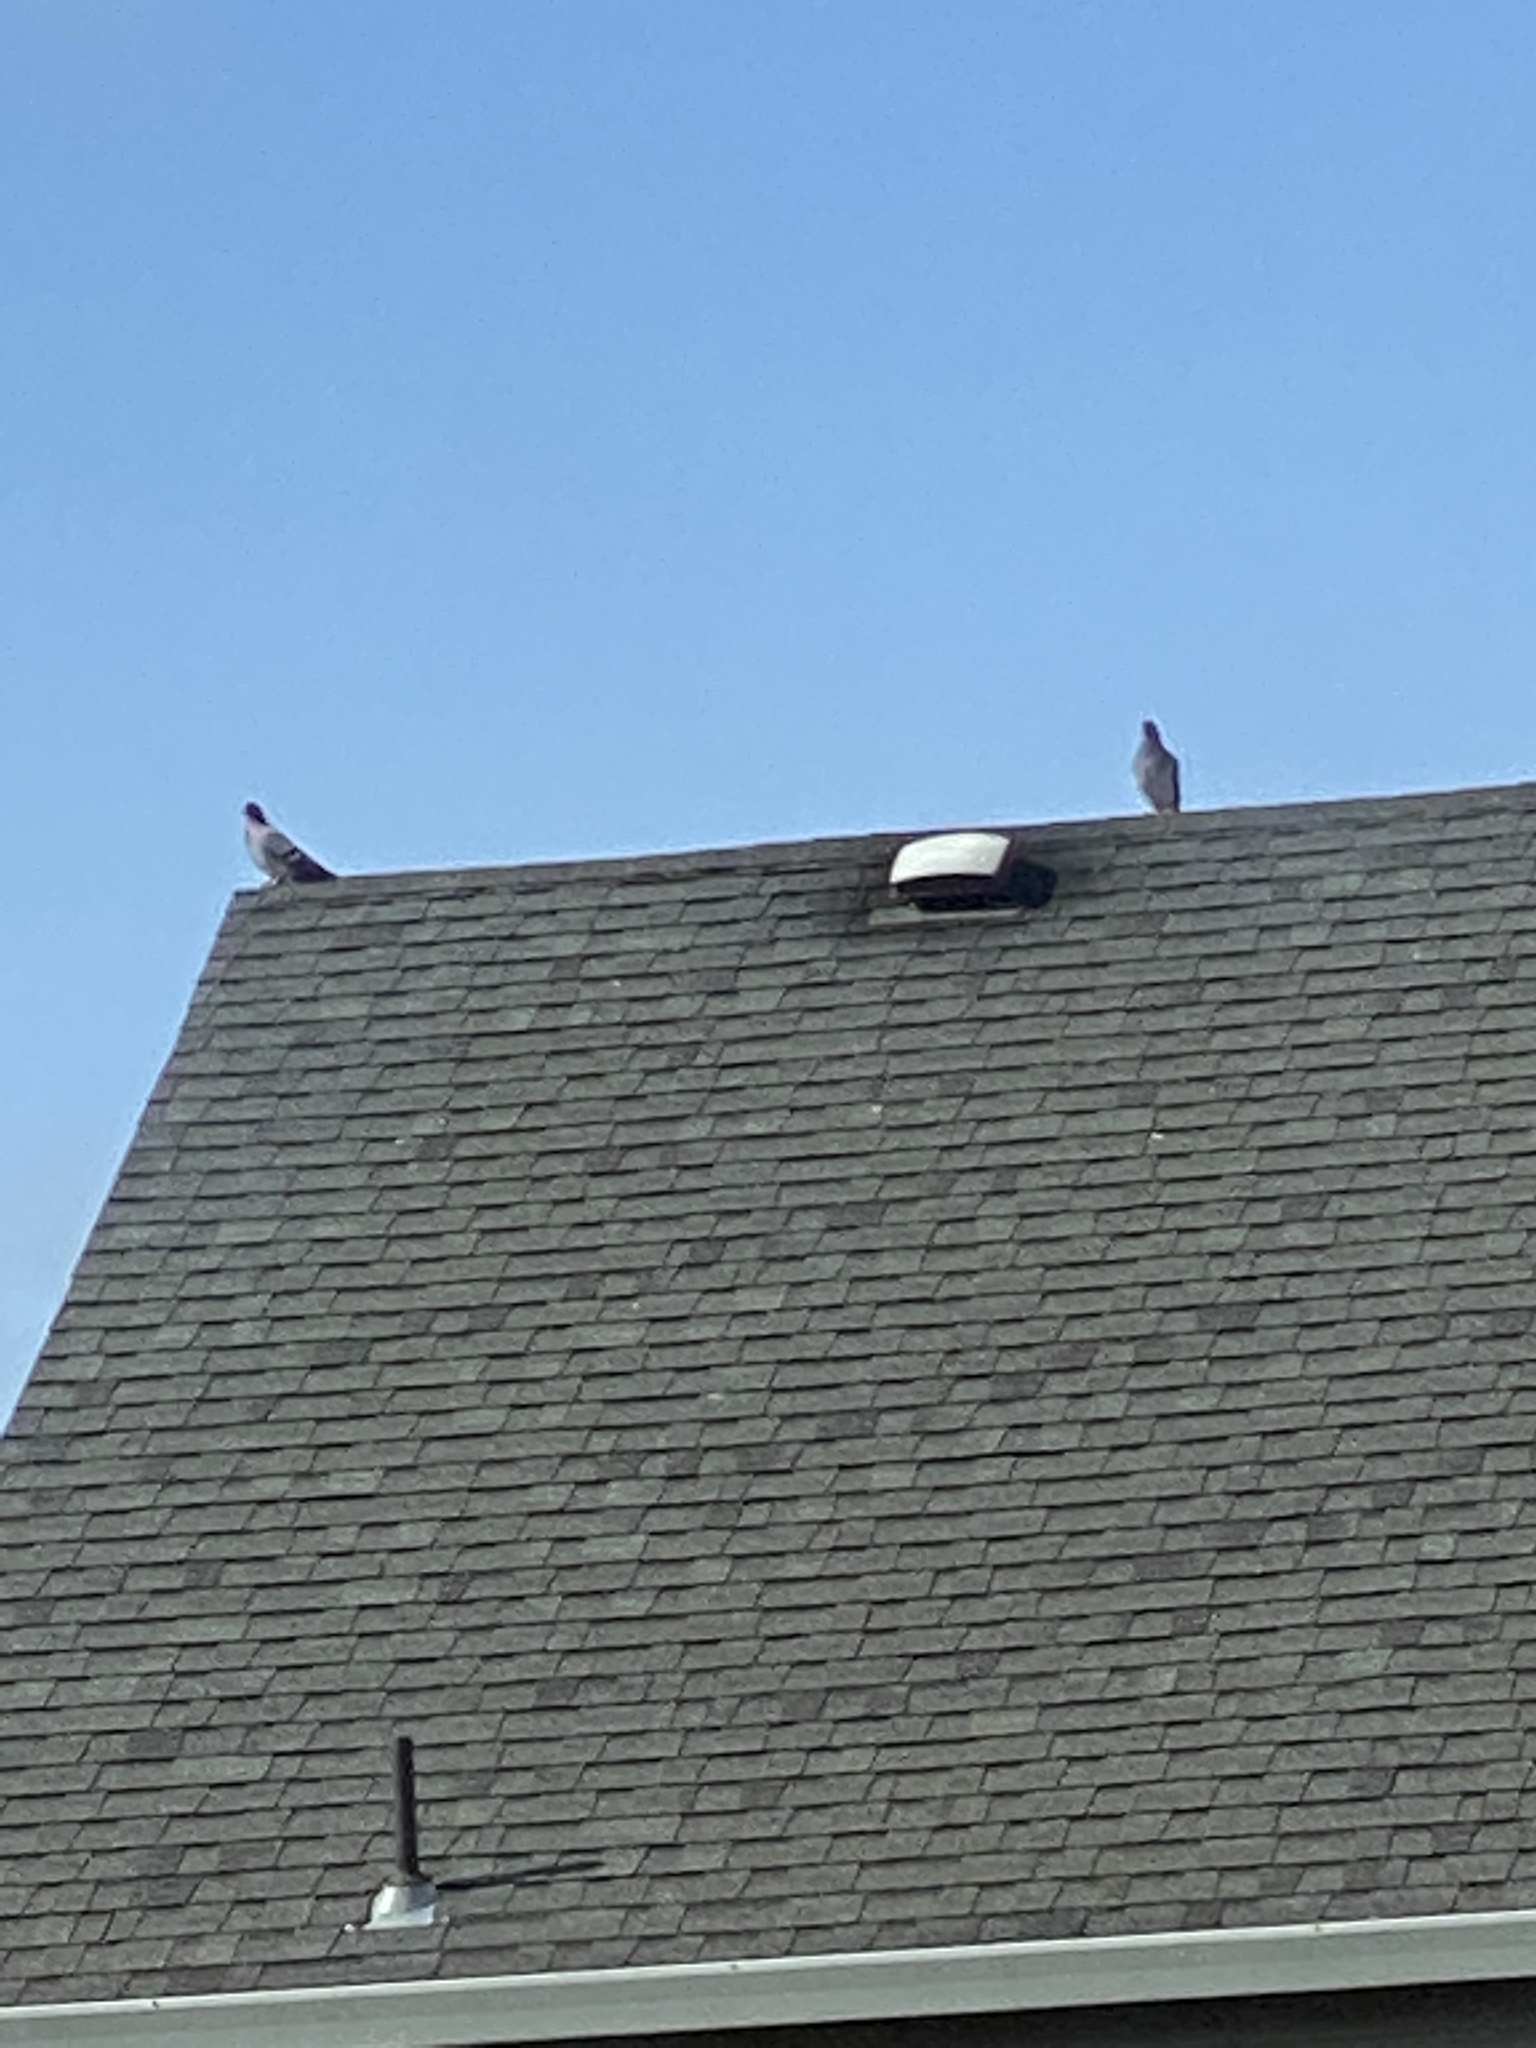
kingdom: Animalia
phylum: Chordata
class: Aves
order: Columbiformes
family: Columbidae
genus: Columba
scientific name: Columba livia
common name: Rock pigeon
